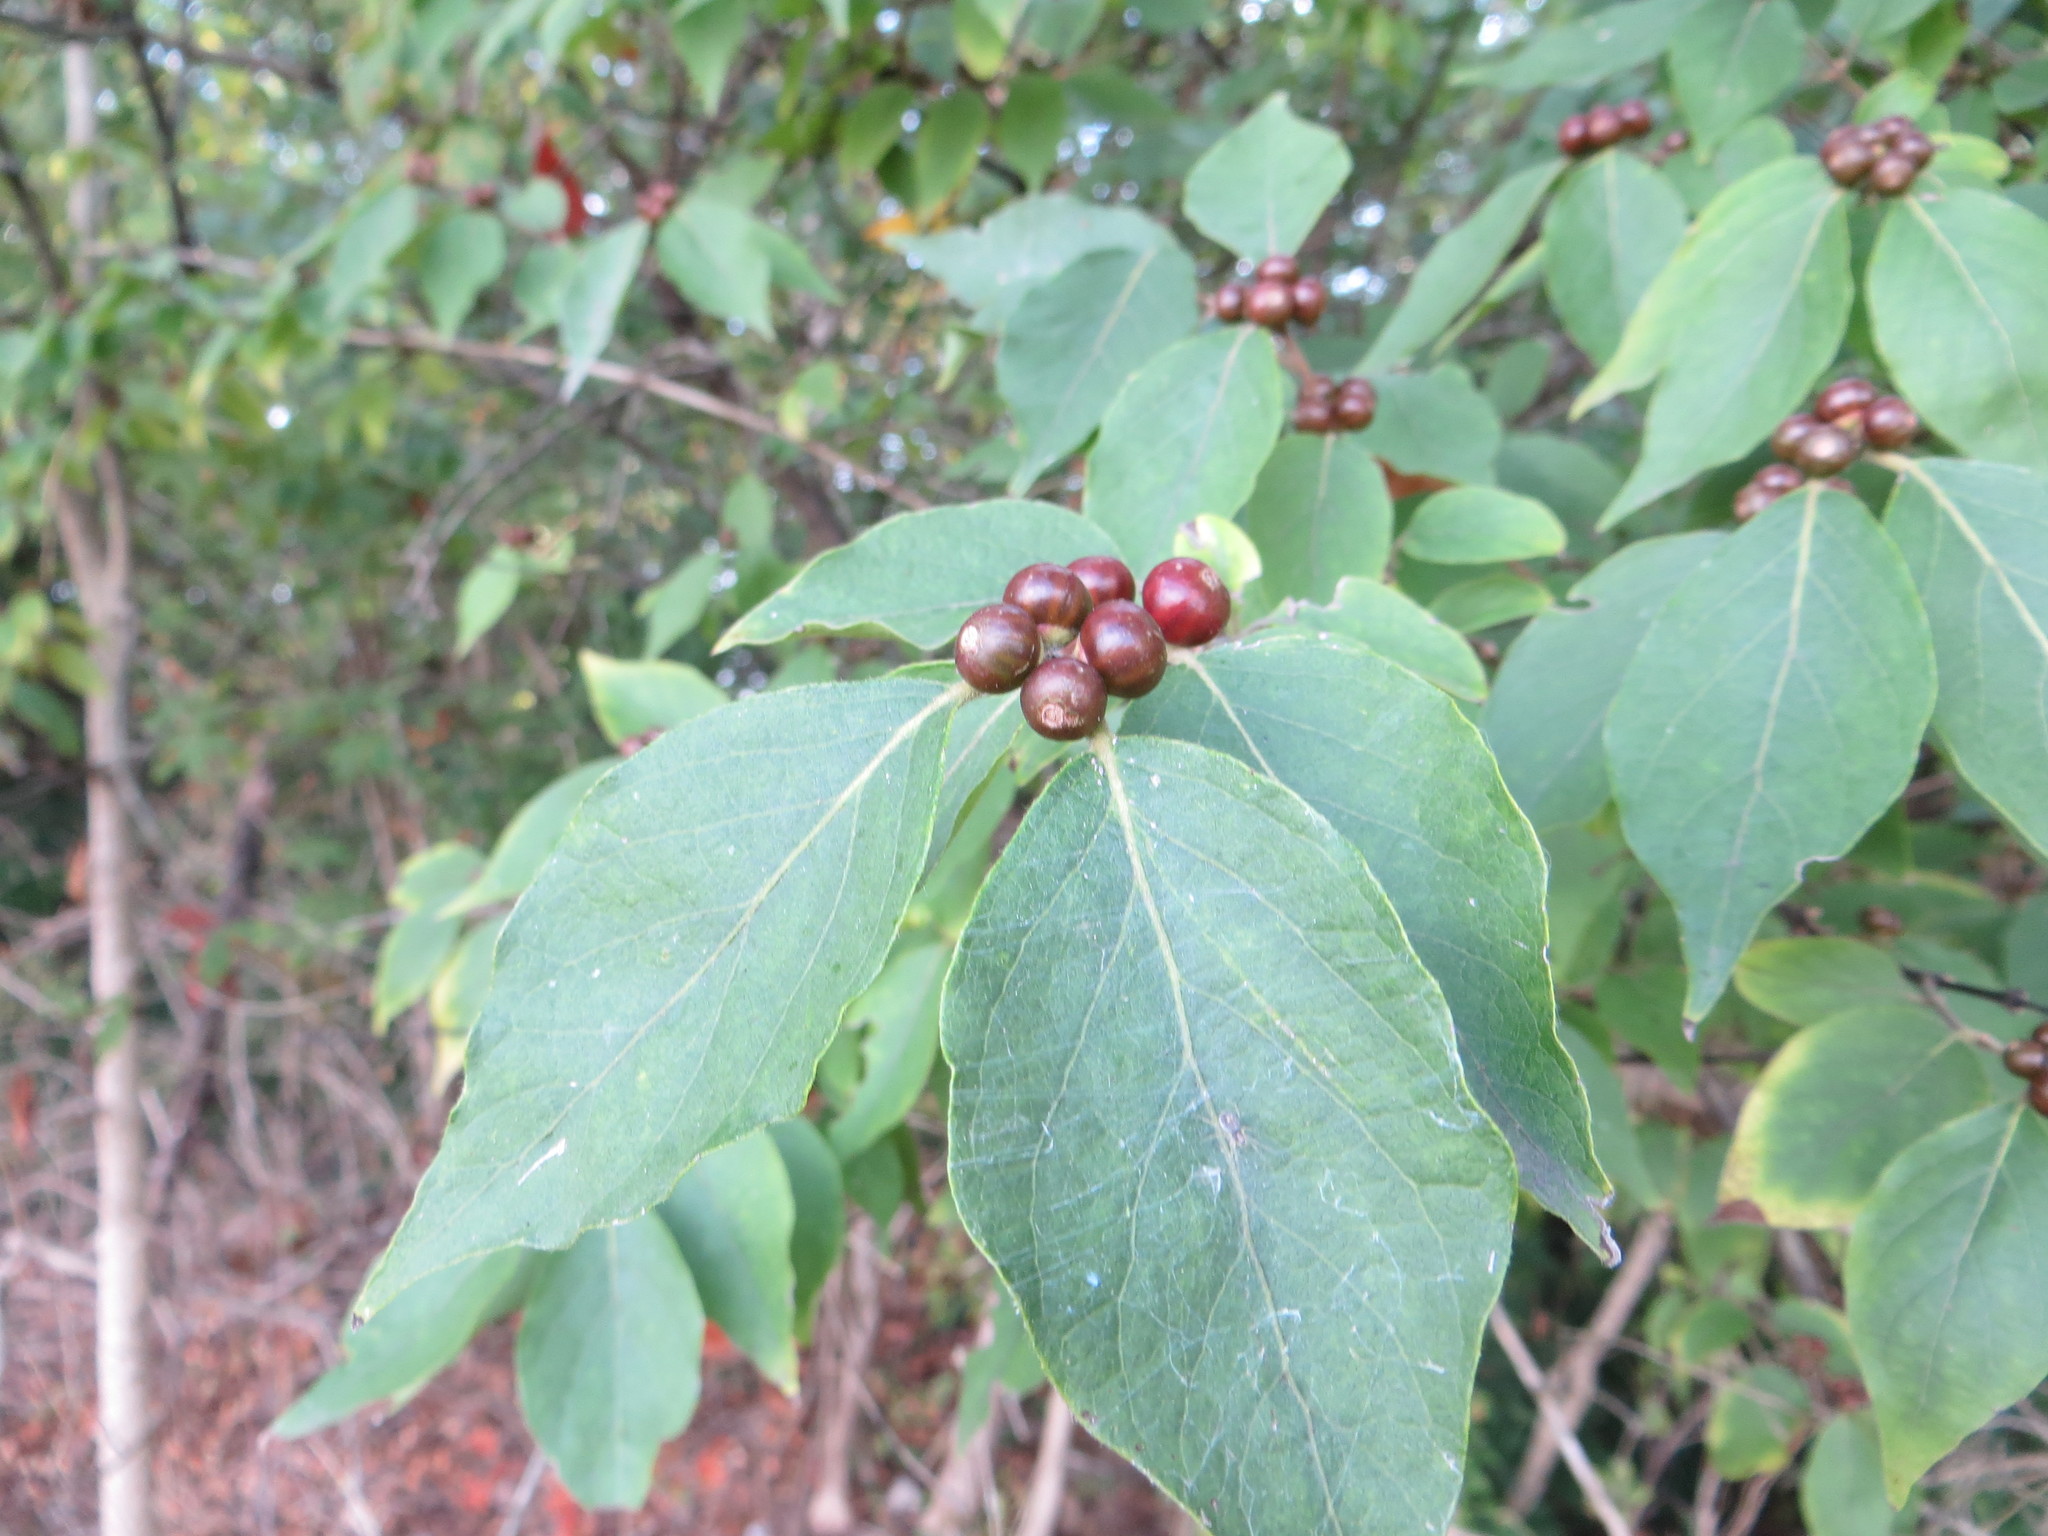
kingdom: Plantae
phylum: Tracheophyta
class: Magnoliopsida
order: Dipsacales
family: Caprifoliaceae
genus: Lonicera
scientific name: Lonicera maackii
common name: Amur honeysuckle
